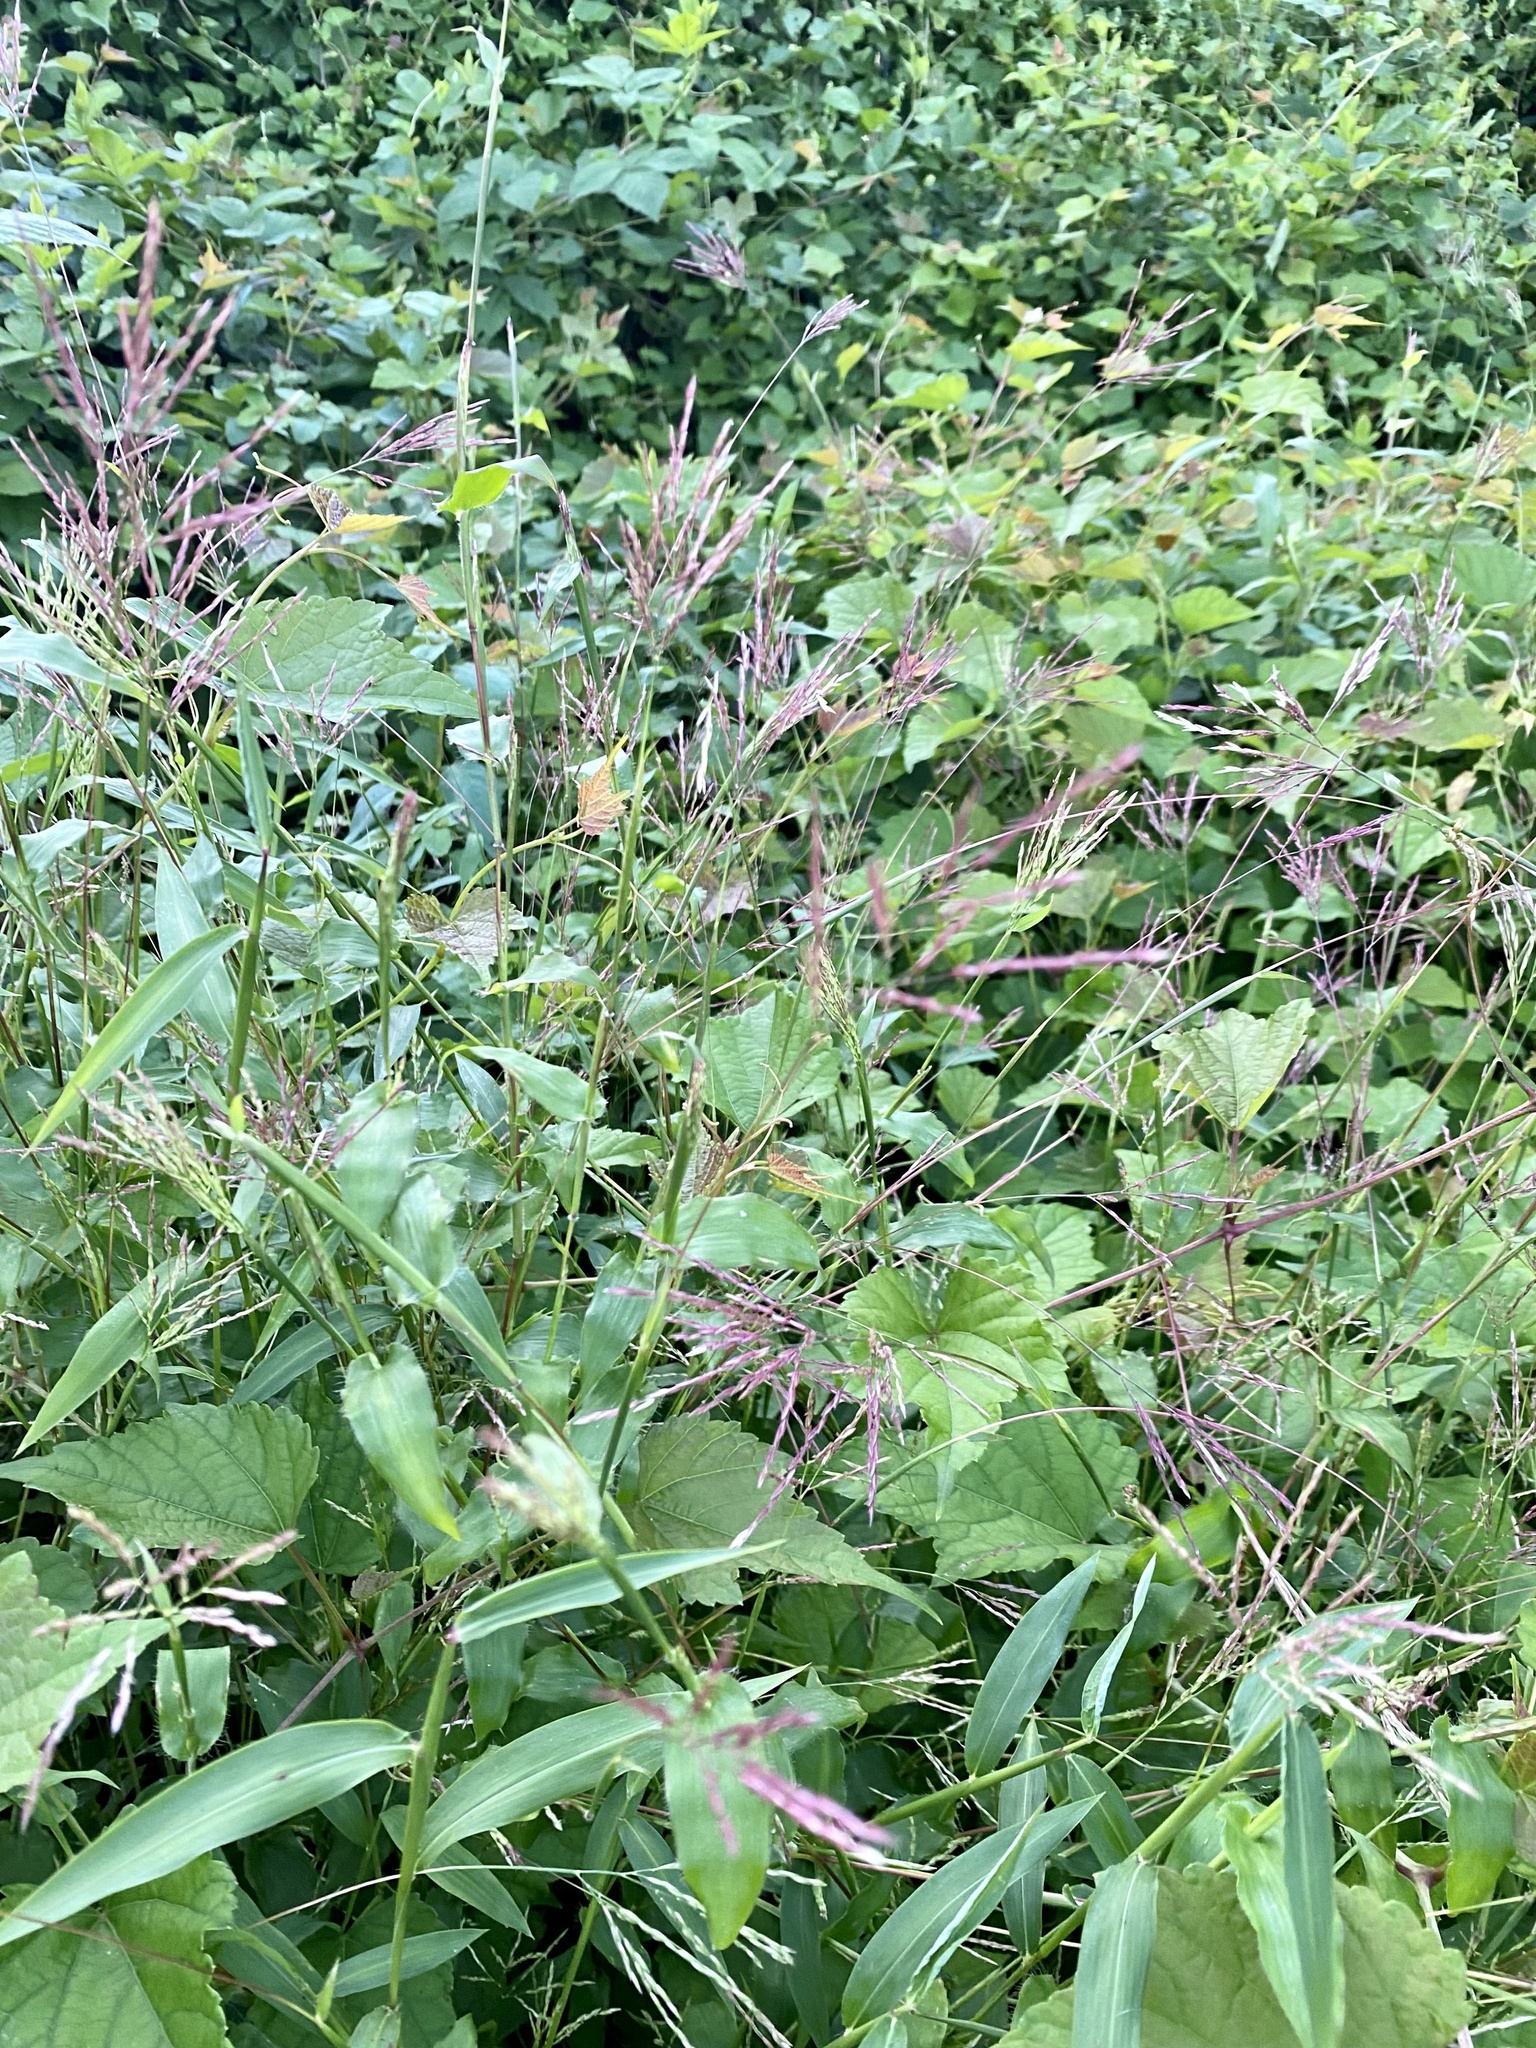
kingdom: Plantae
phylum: Tracheophyta
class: Liliopsida
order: Poales
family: Poaceae
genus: Arthraxon
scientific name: Arthraxon hispidus
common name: Small carpgrass
